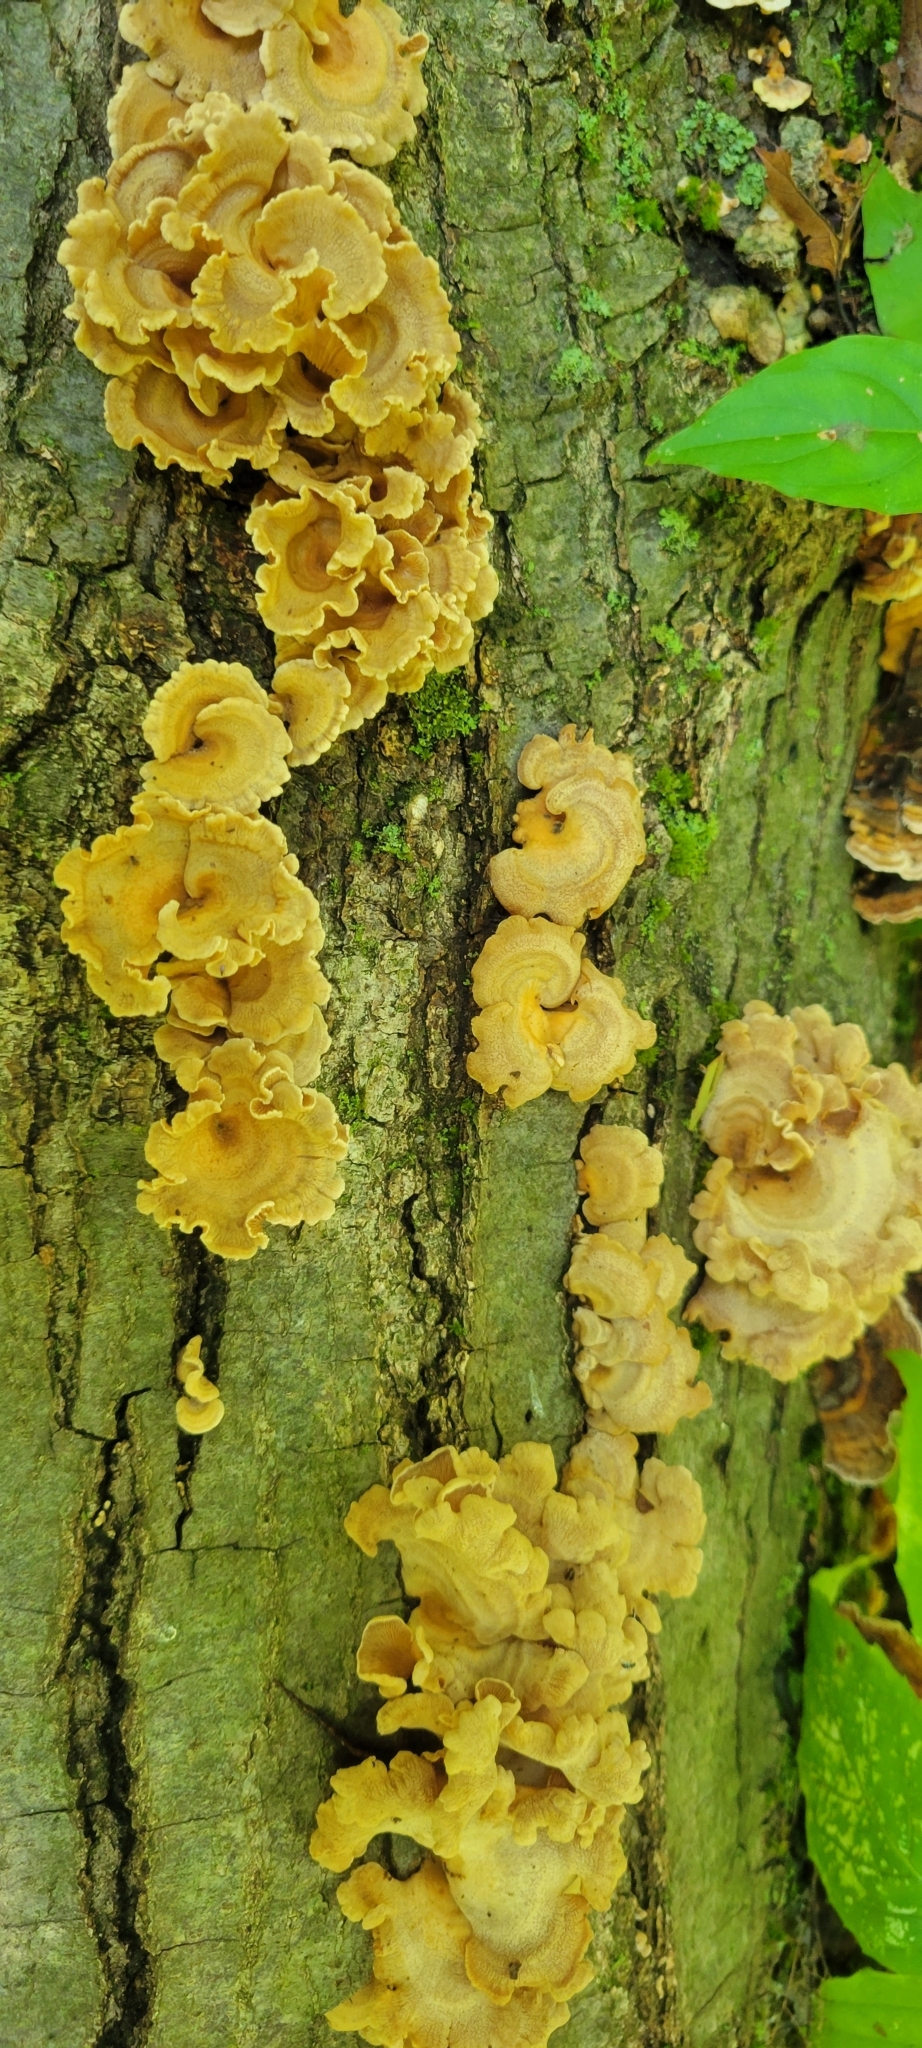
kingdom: Fungi
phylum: Basidiomycota
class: Agaricomycetes
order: Agaricales
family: Mycenaceae
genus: Panellus
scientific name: Panellus stipticus
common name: Bitter oysterling
